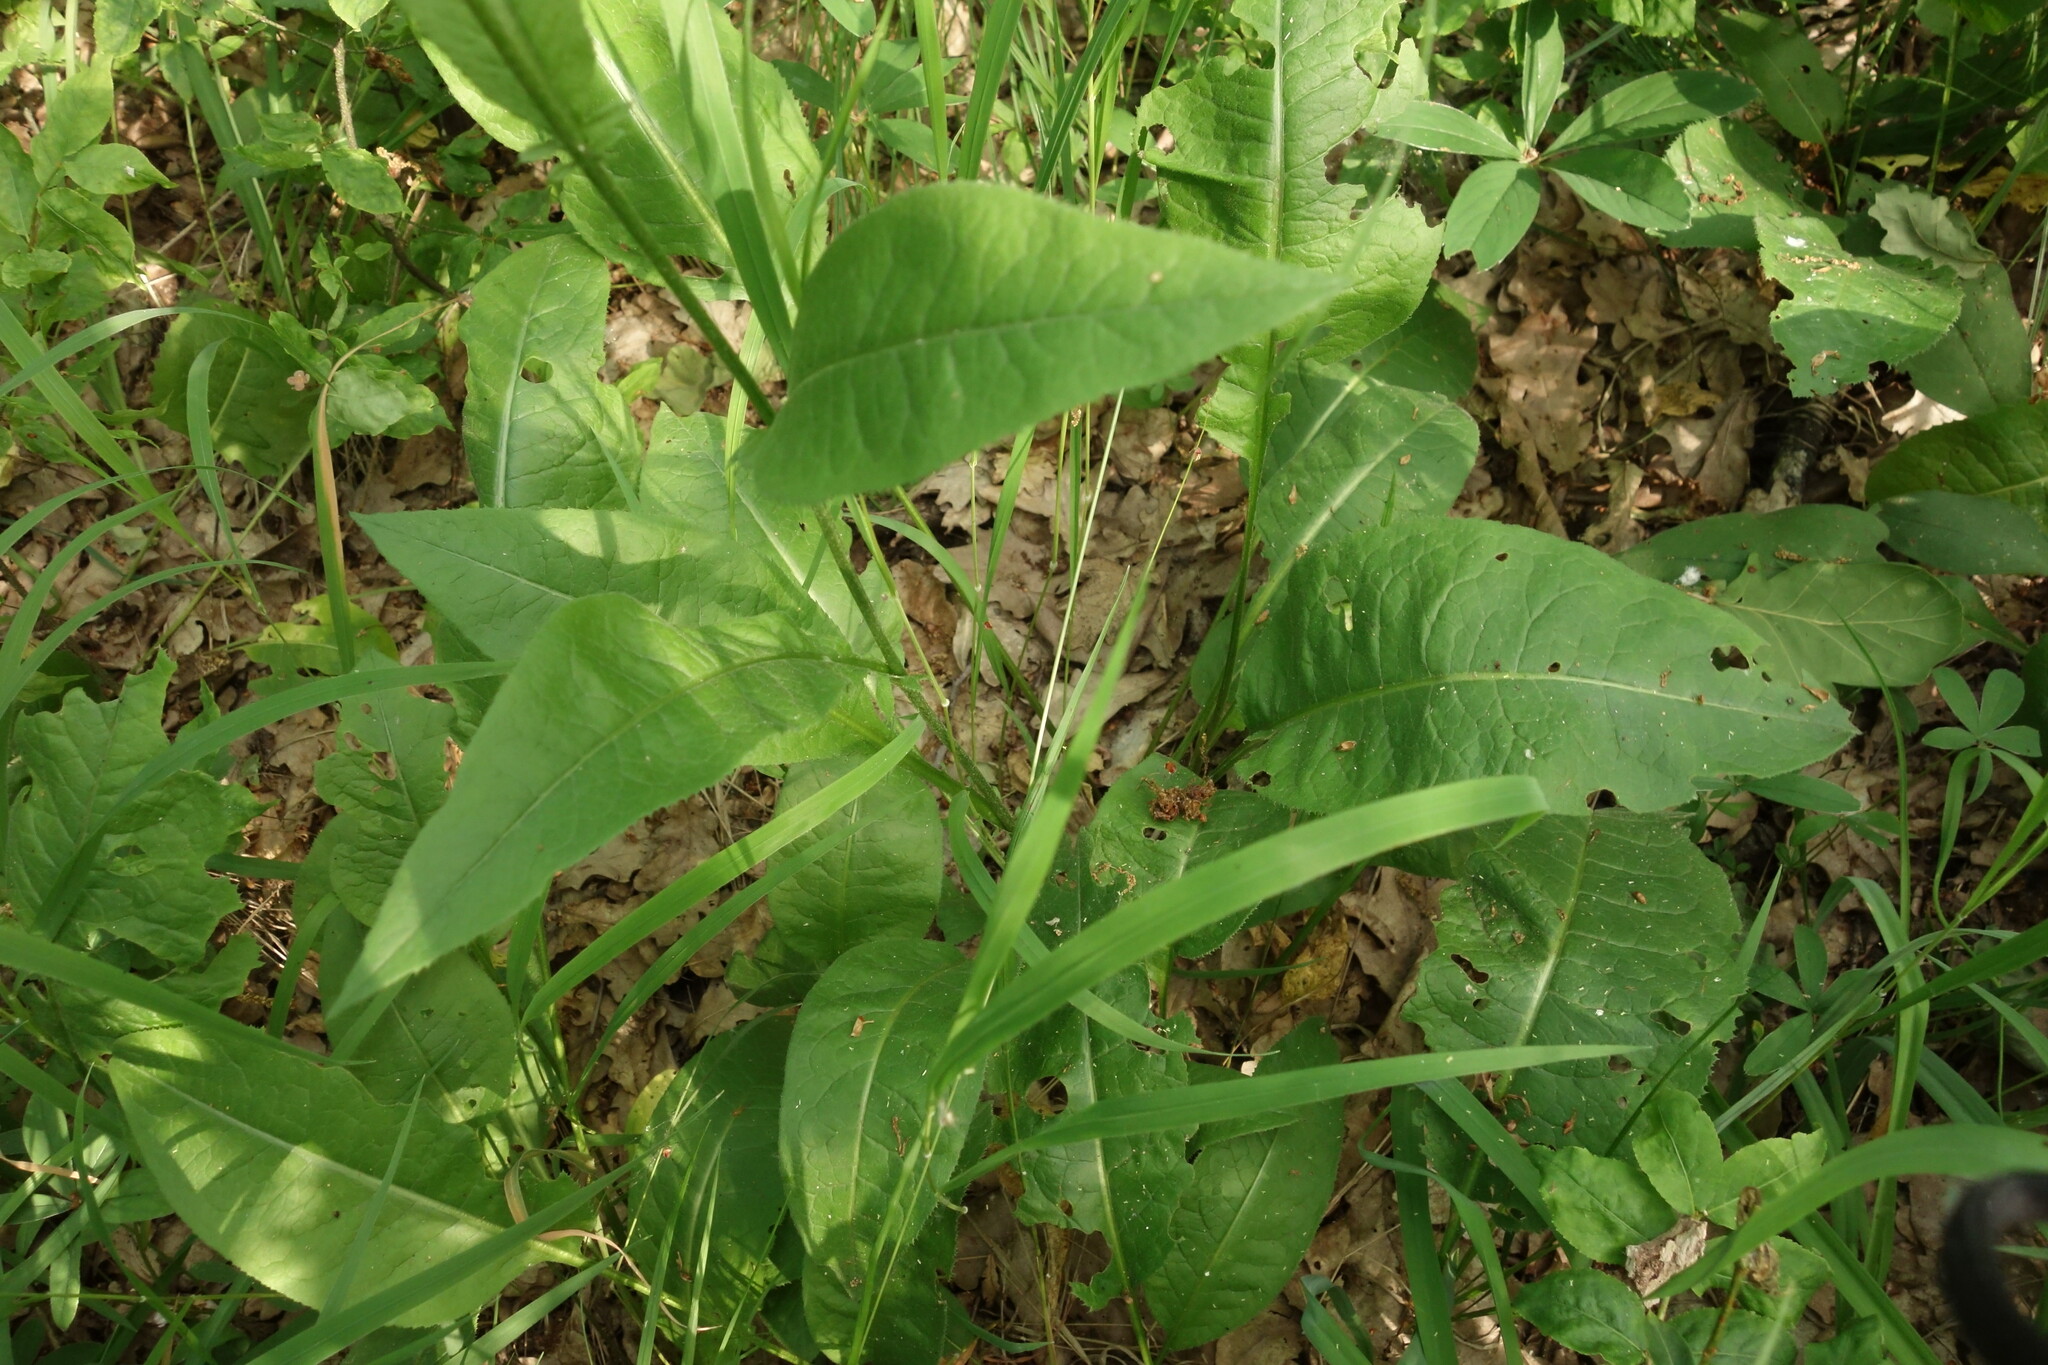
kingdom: Plantae
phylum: Tracheophyta
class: Magnoliopsida
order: Asterales
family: Asteraceae
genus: Serratula
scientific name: Serratula tinctoria
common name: Saw-wort
